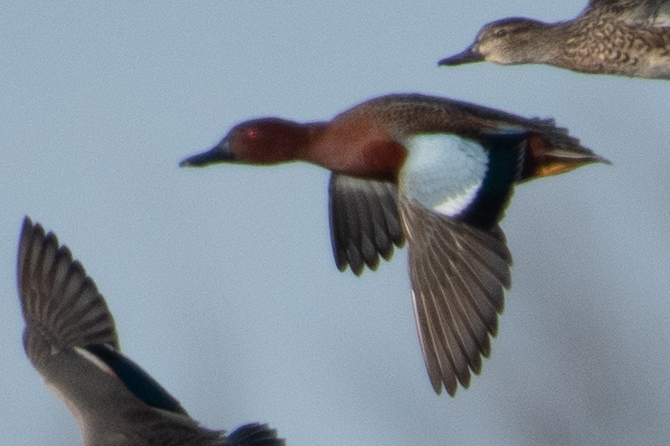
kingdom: Animalia
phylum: Chordata
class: Aves
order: Anseriformes
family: Anatidae
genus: Spatula
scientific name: Spatula cyanoptera
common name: Cinnamon teal
